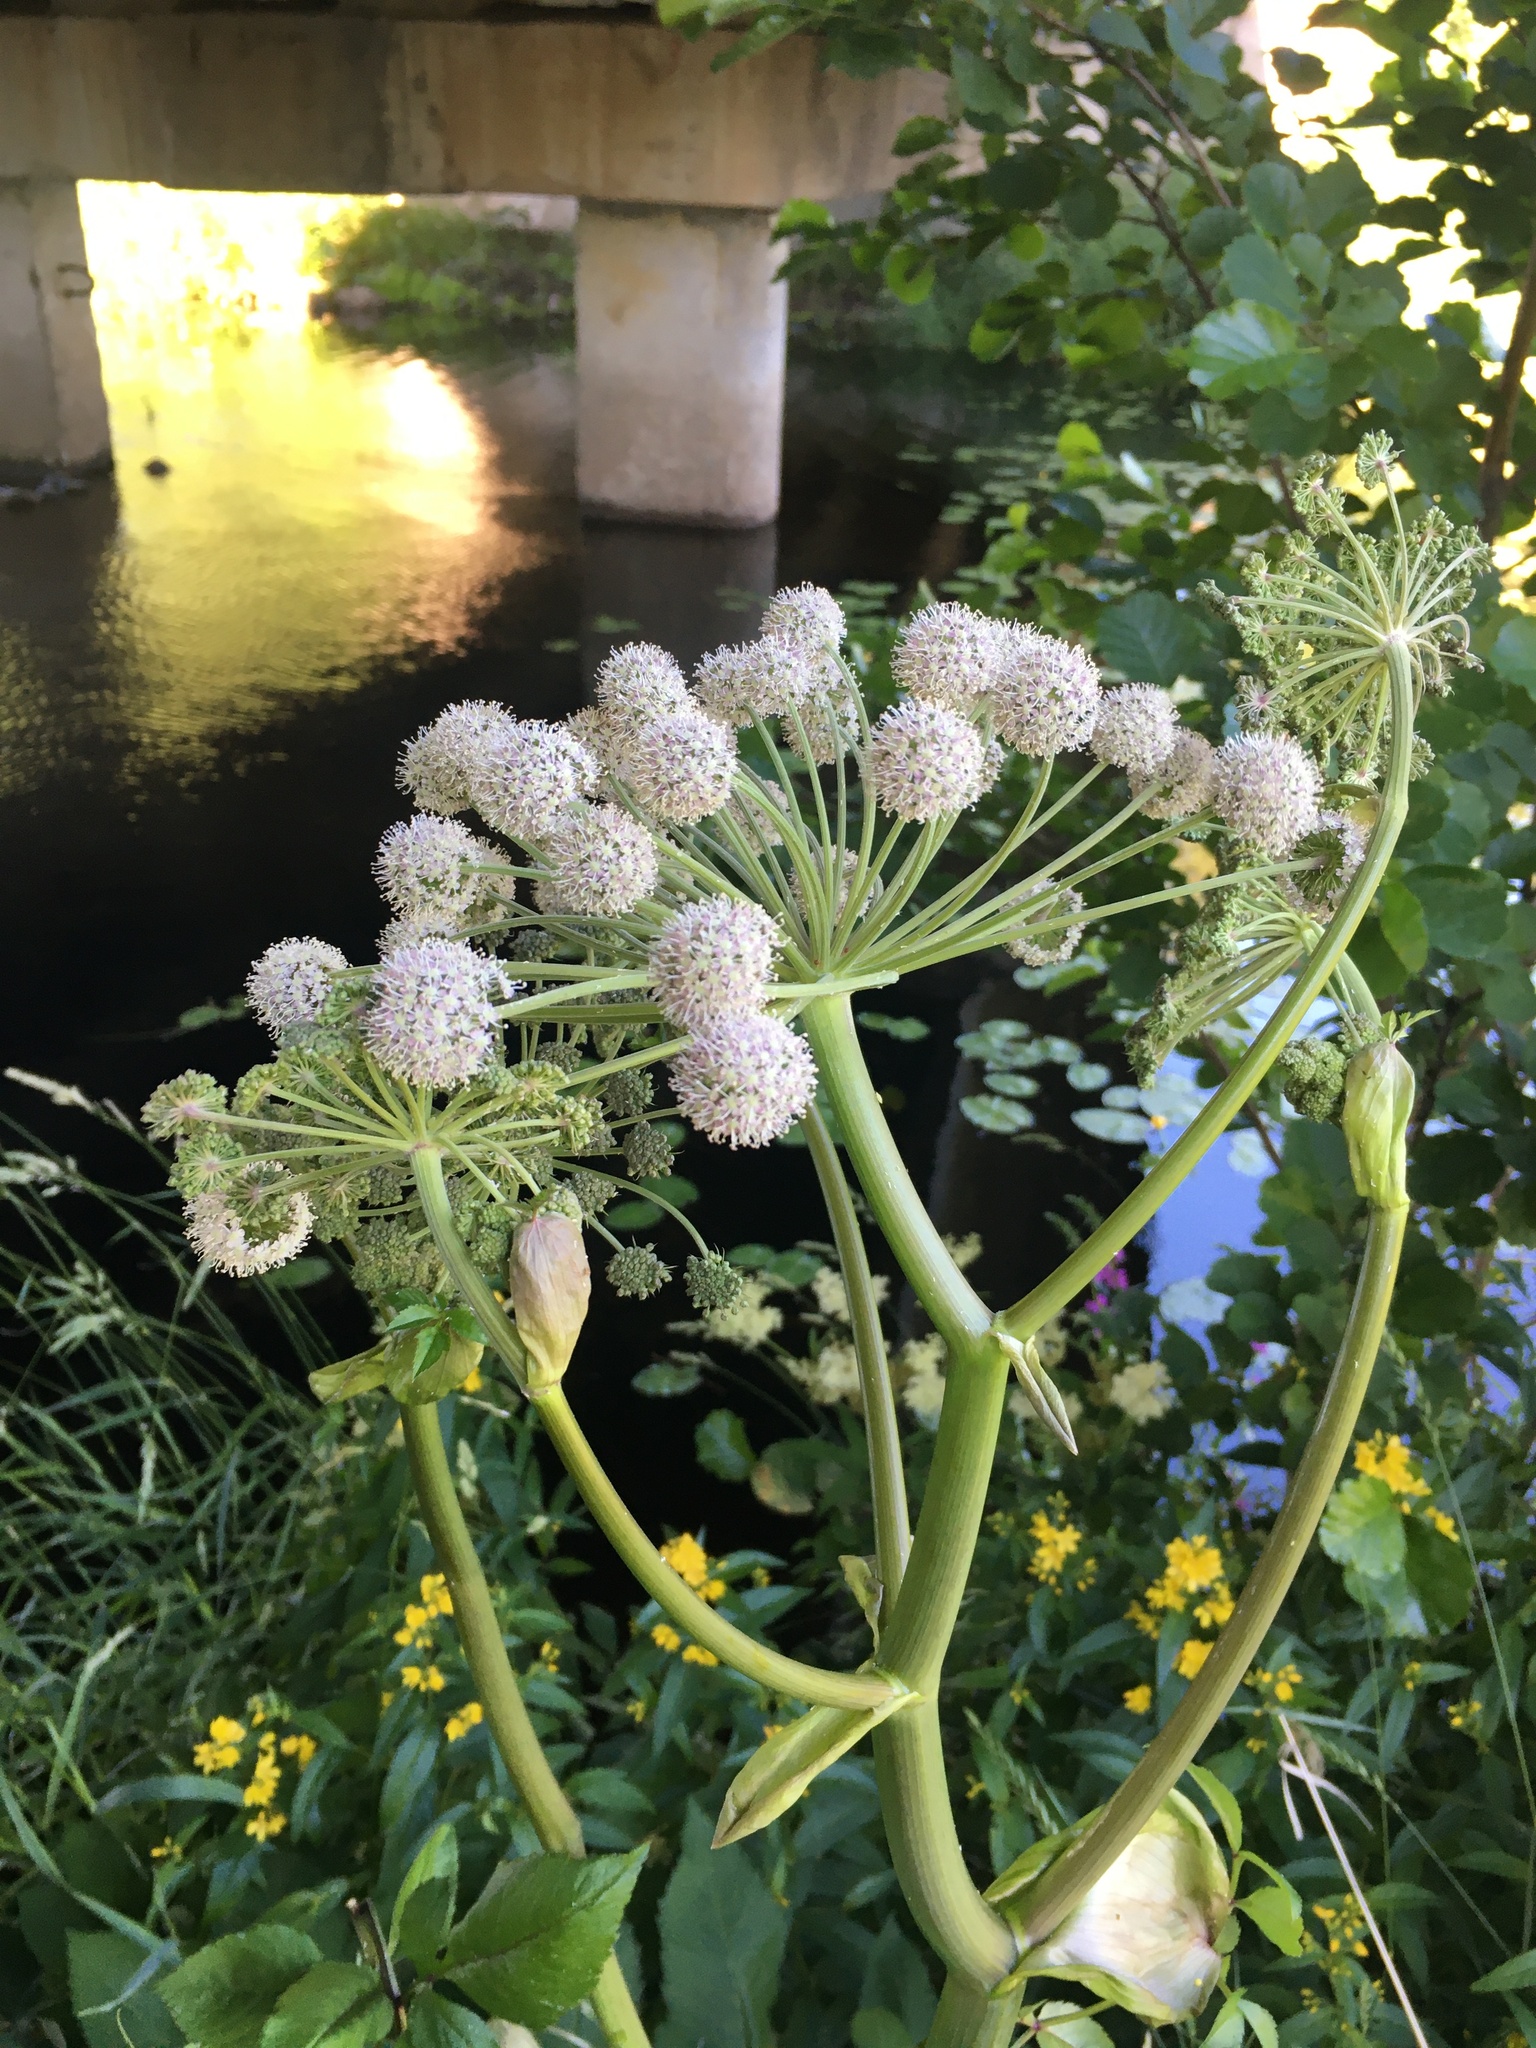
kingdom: Plantae
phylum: Tracheophyta
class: Magnoliopsida
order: Apiales
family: Apiaceae
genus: Angelica
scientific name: Angelica sylvestris
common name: Wild angelica
